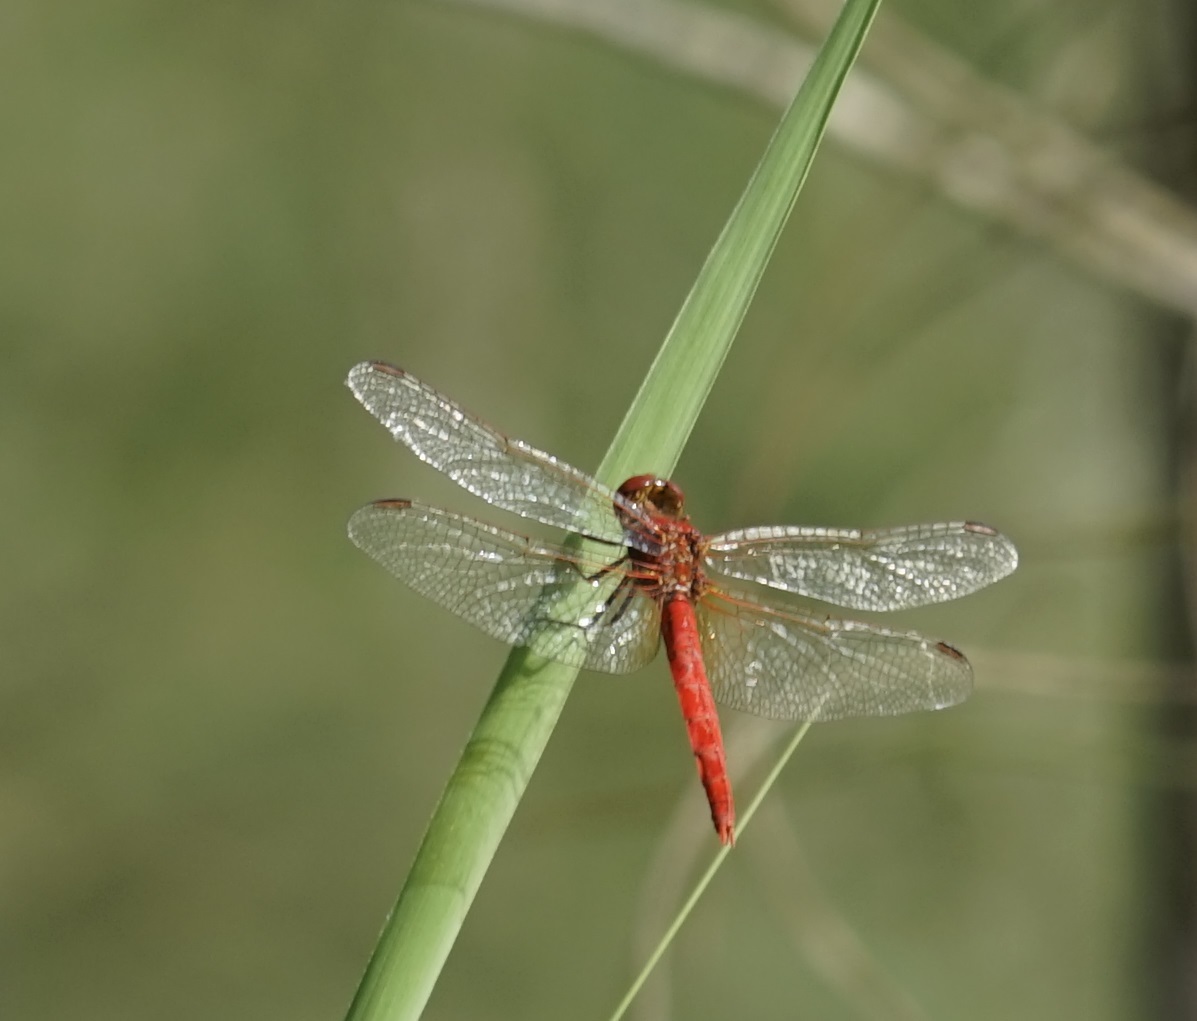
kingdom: Animalia
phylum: Arthropoda
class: Insecta
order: Odonata
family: Libellulidae
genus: Diplacodes
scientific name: Diplacodes haematodes
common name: Scarlet percher
